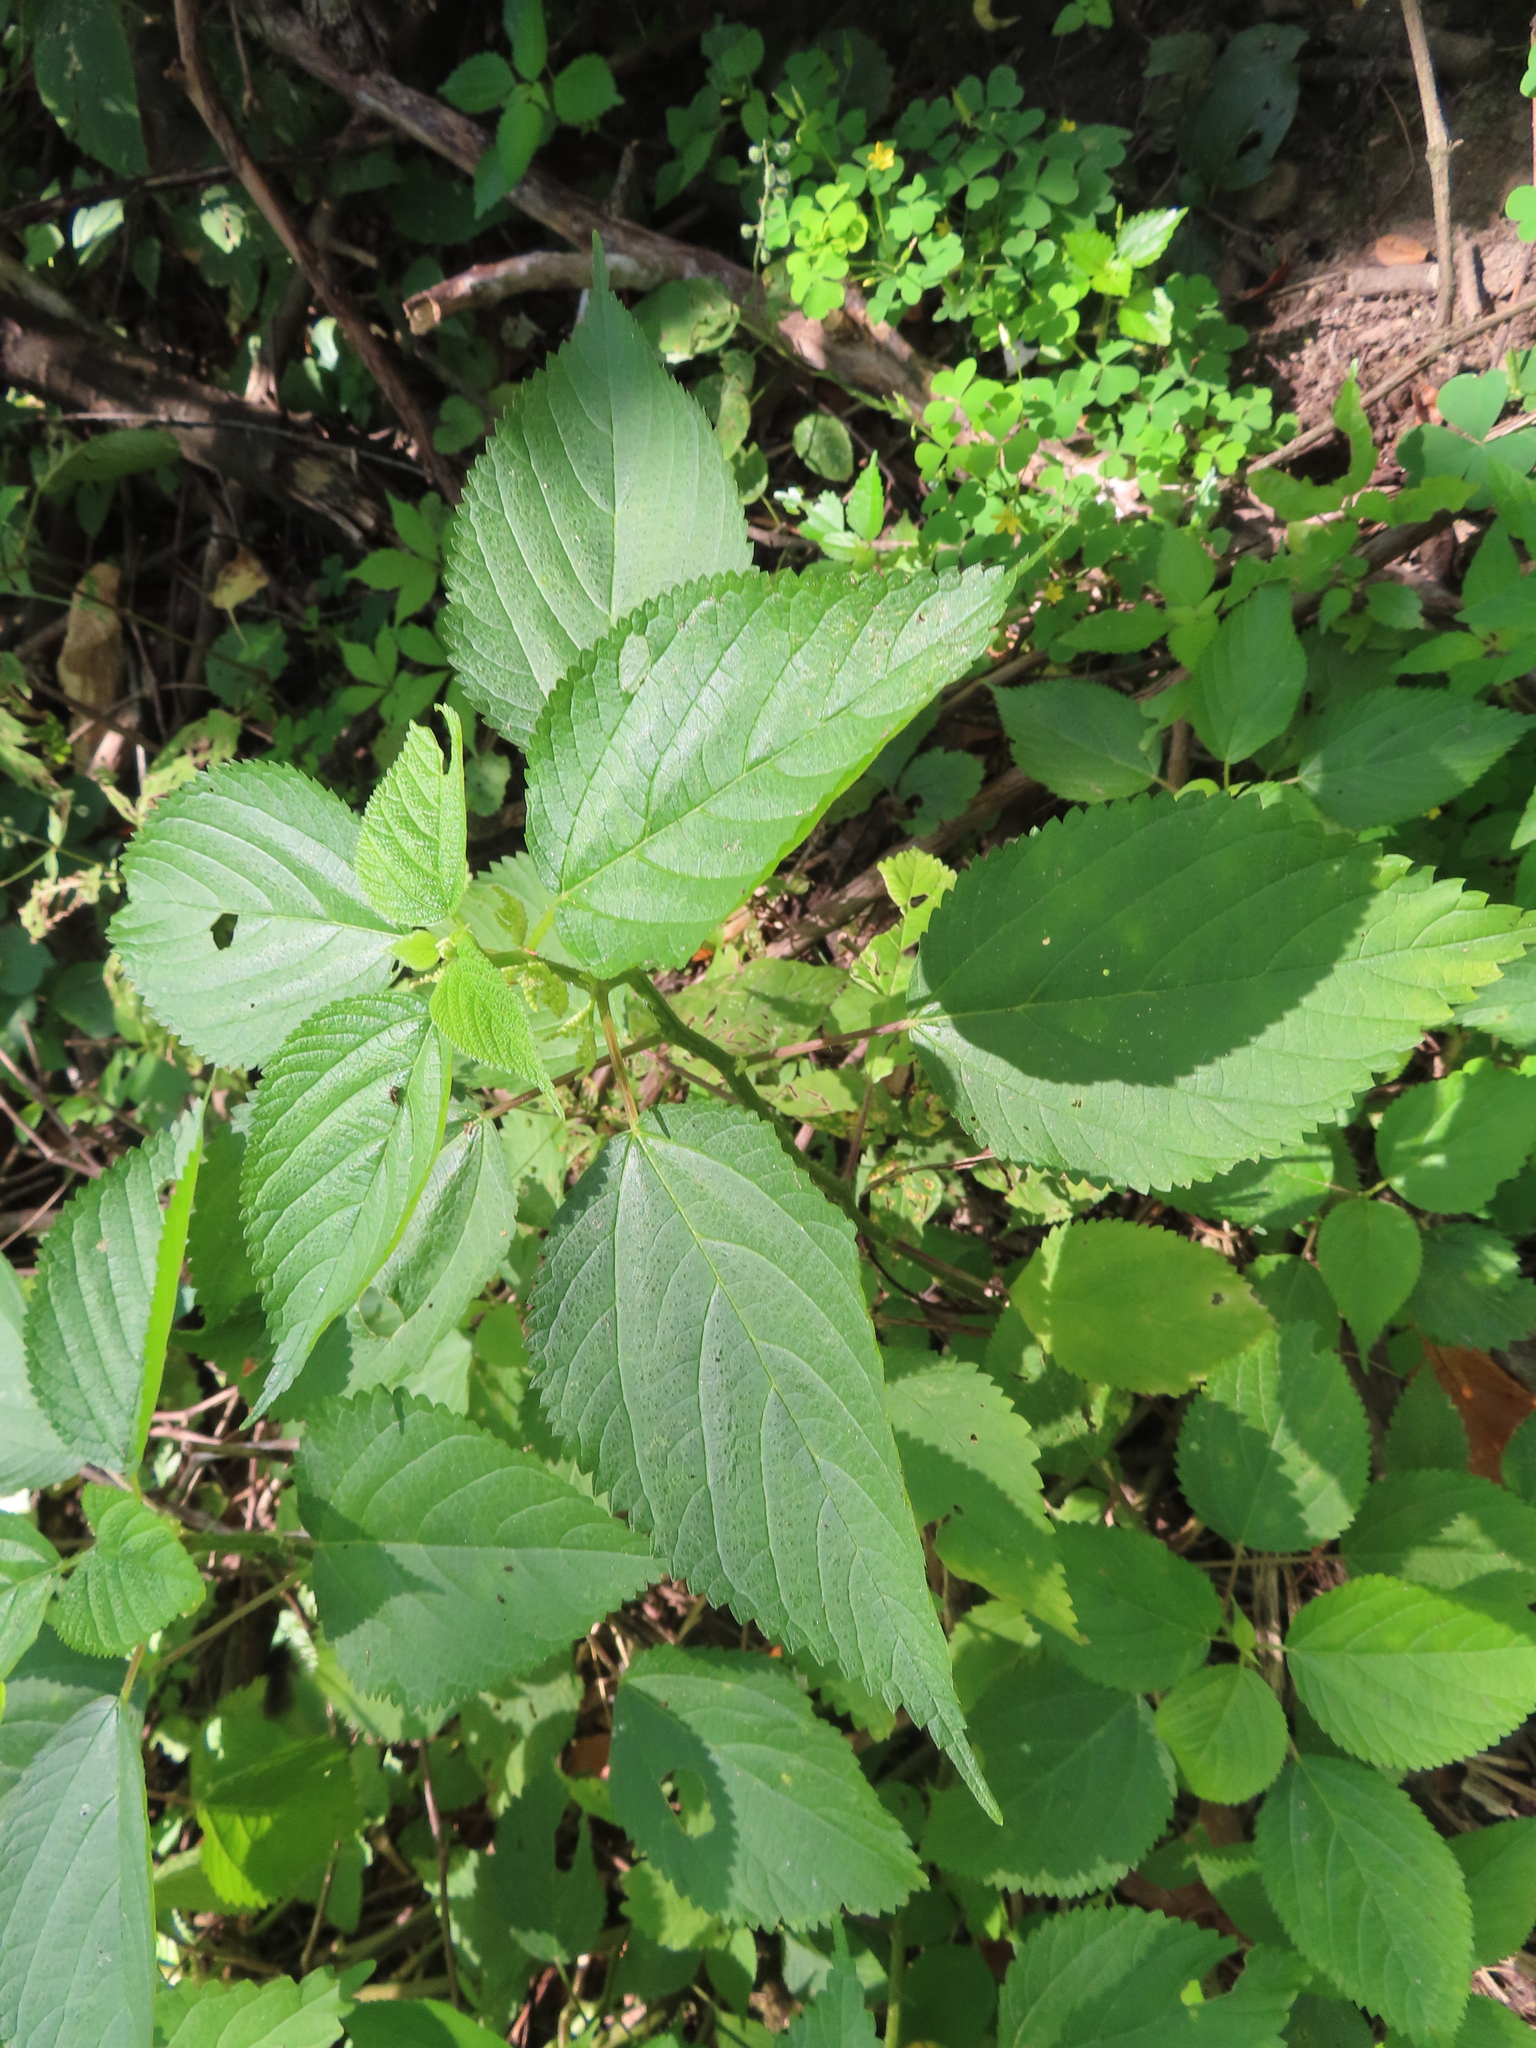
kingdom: Plantae
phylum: Tracheophyta
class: Magnoliopsida
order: Rosales
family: Urticaceae
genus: Laportea
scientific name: Laportea canadensis
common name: Canada nettle
